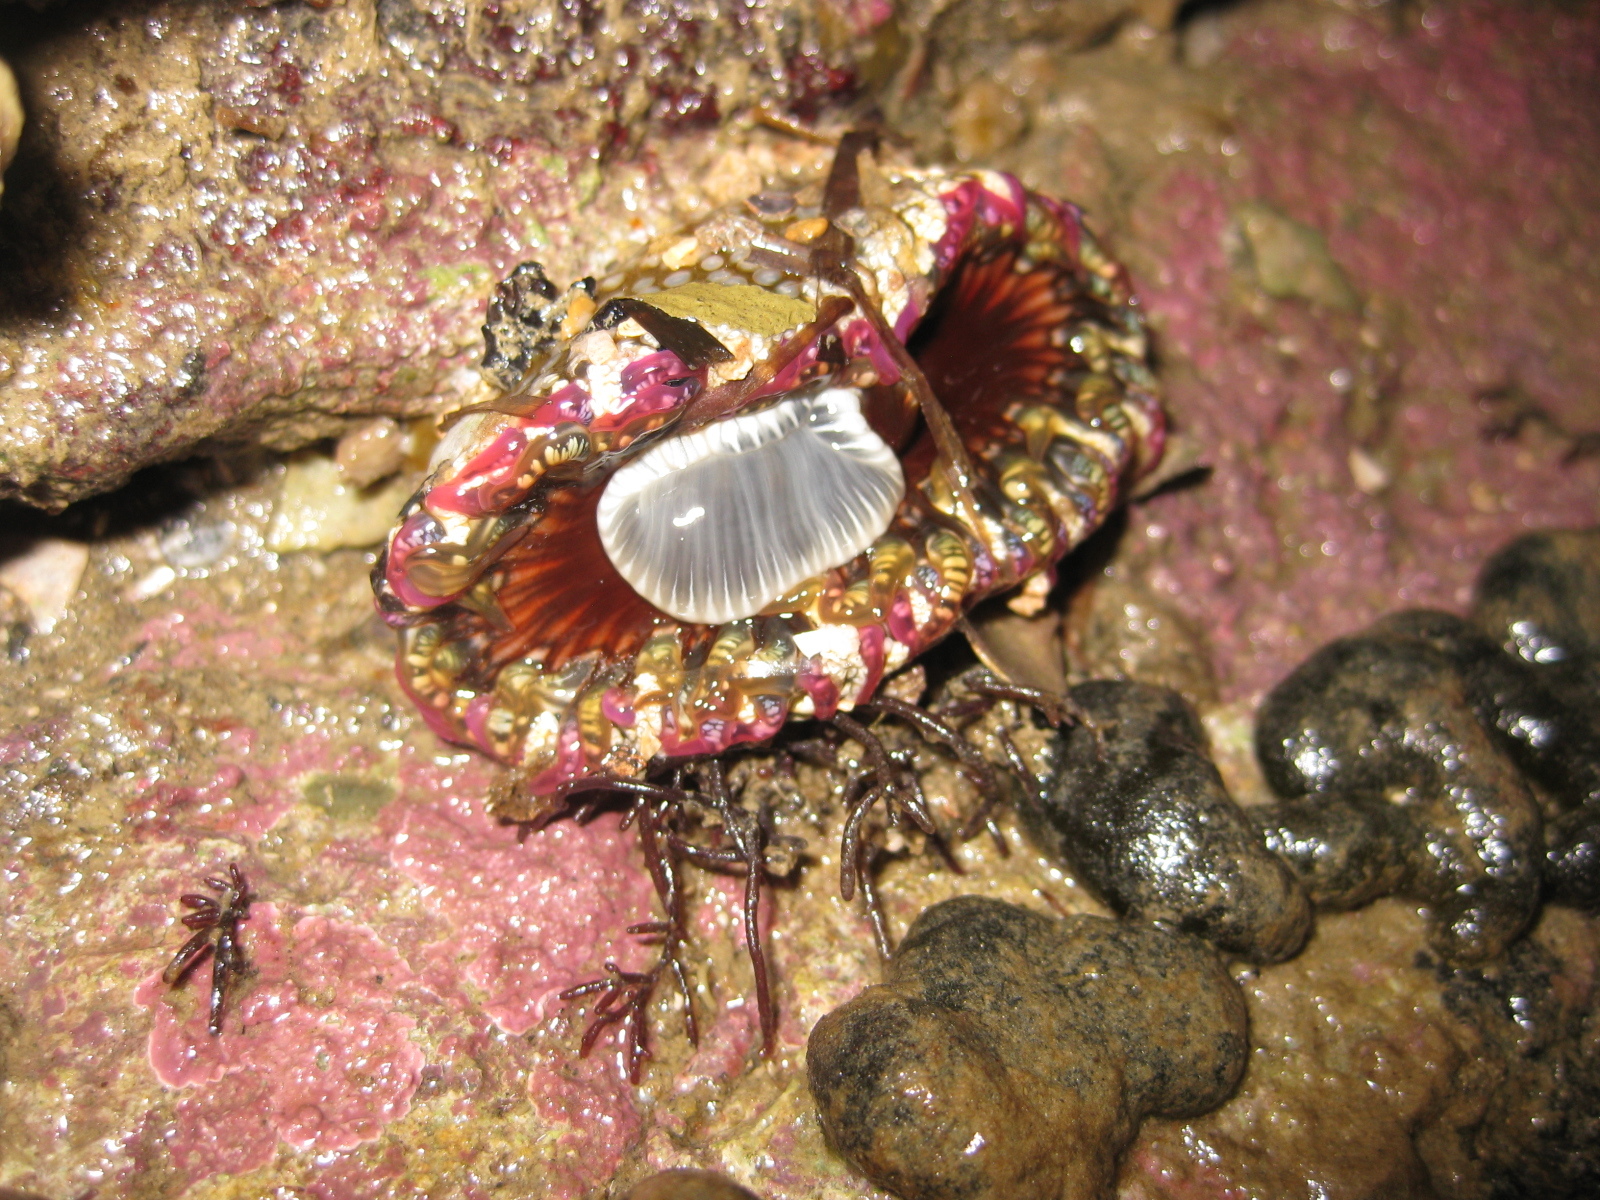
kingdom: Animalia
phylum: Cnidaria
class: Anthozoa
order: Actiniaria
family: Actiniidae
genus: Oulactis
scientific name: Oulactis muscosa
